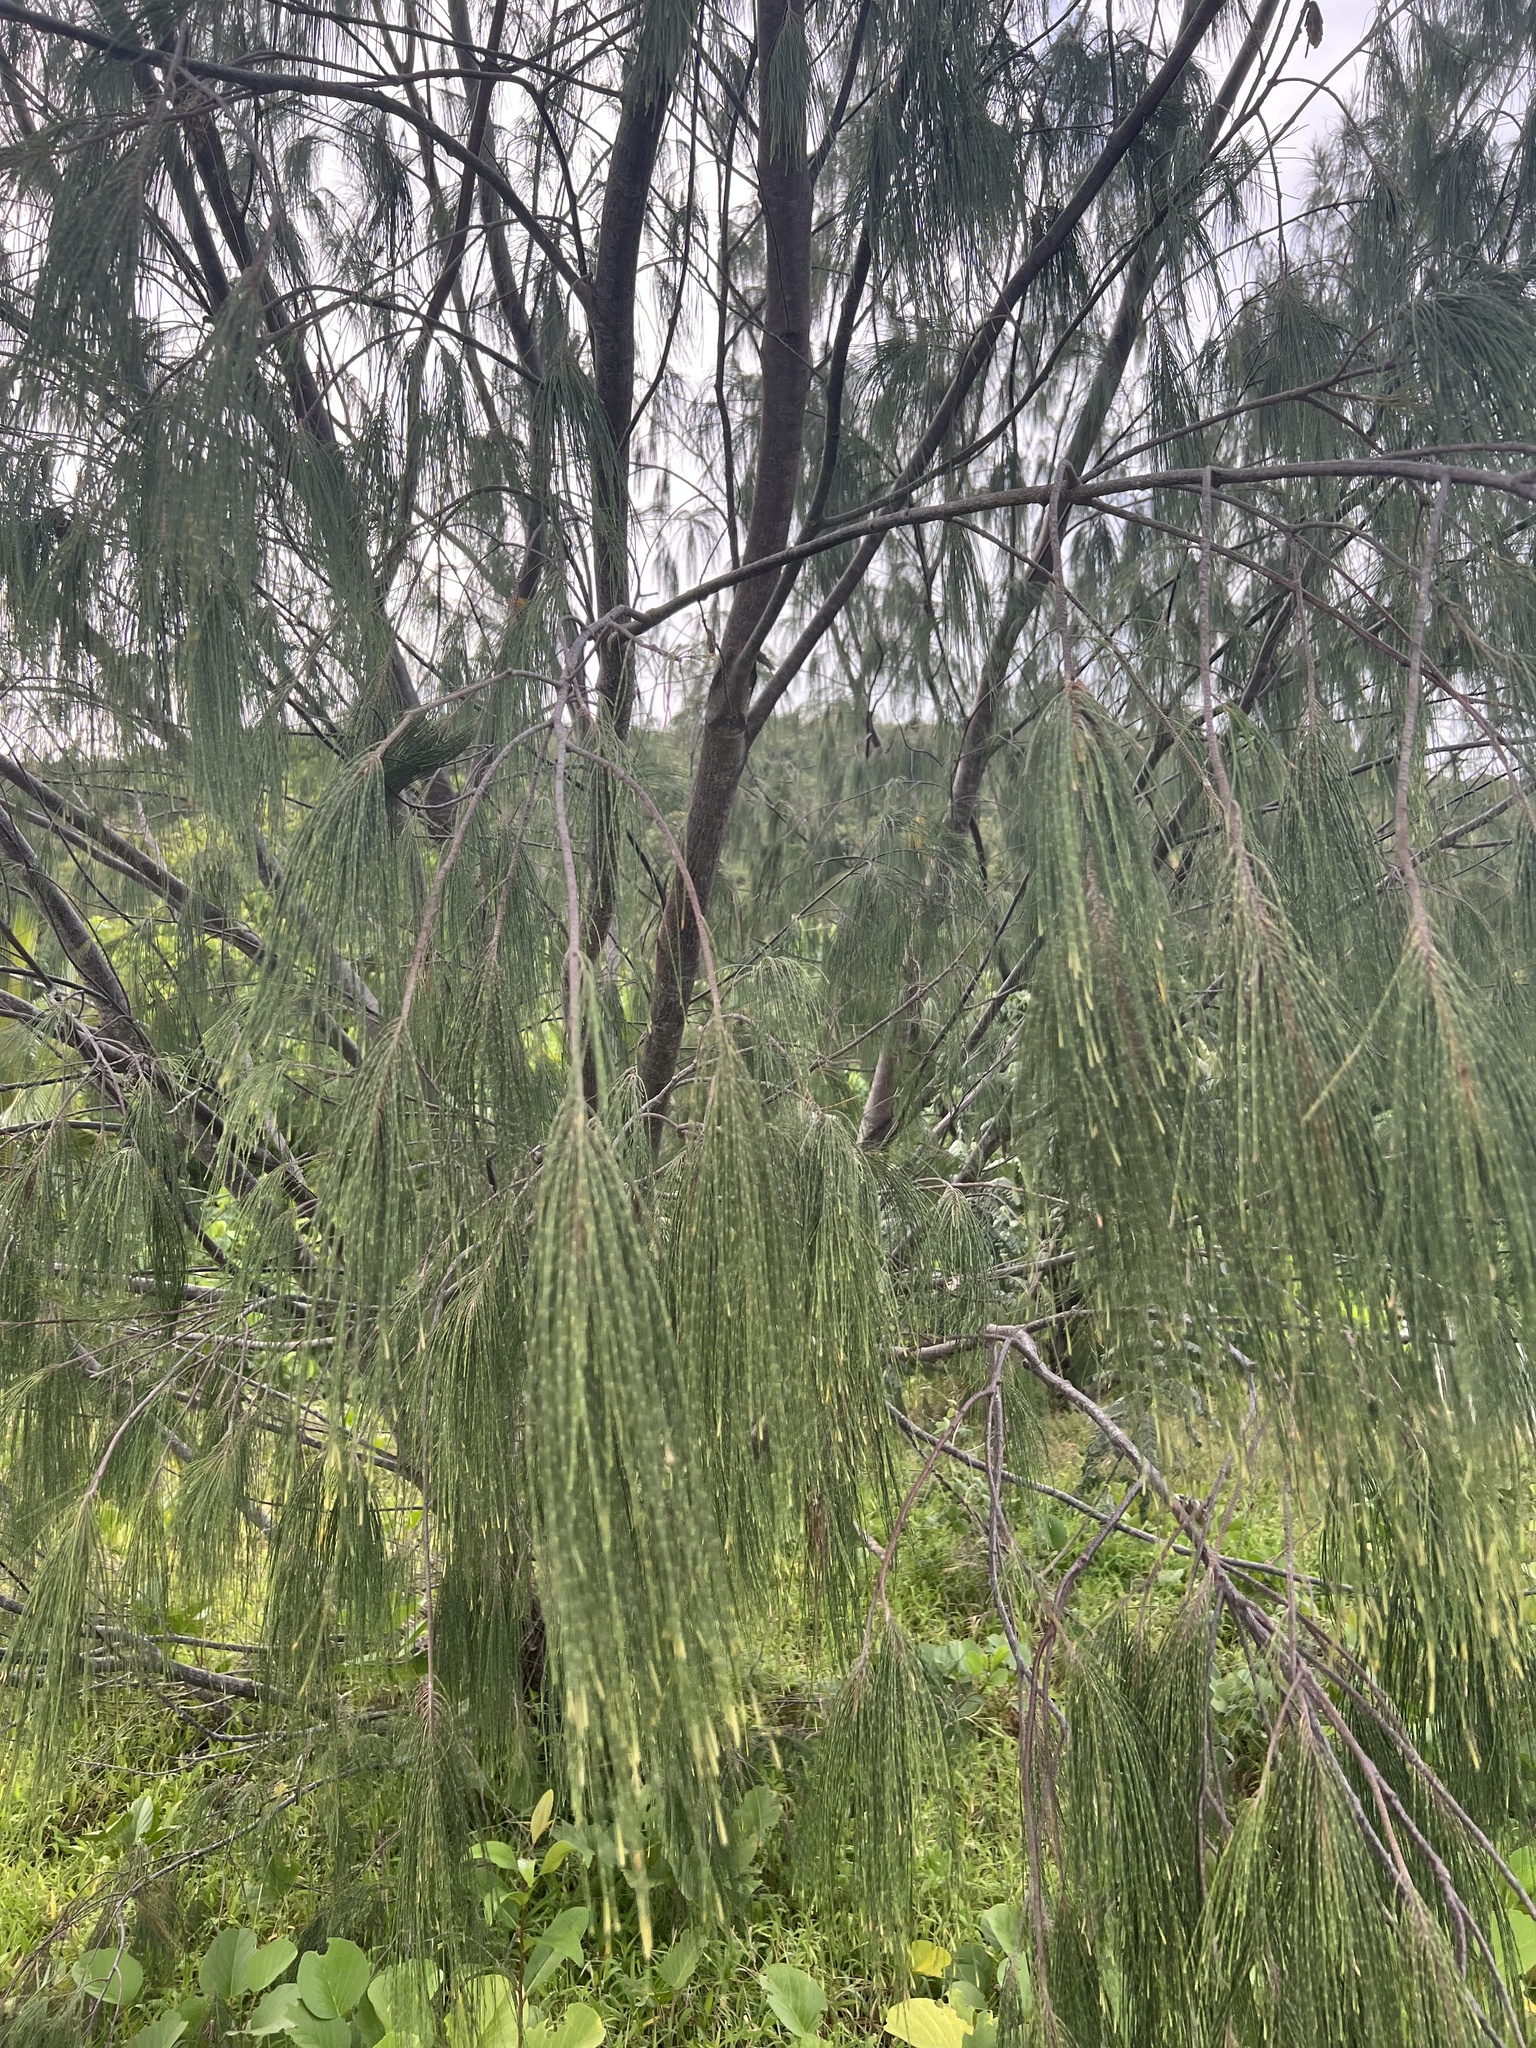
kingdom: Plantae
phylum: Tracheophyta
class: Magnoliopsida
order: Fagales
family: Casuarinaceae
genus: Casuarina
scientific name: Casuarina equisetifolia
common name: Beach sheoak
